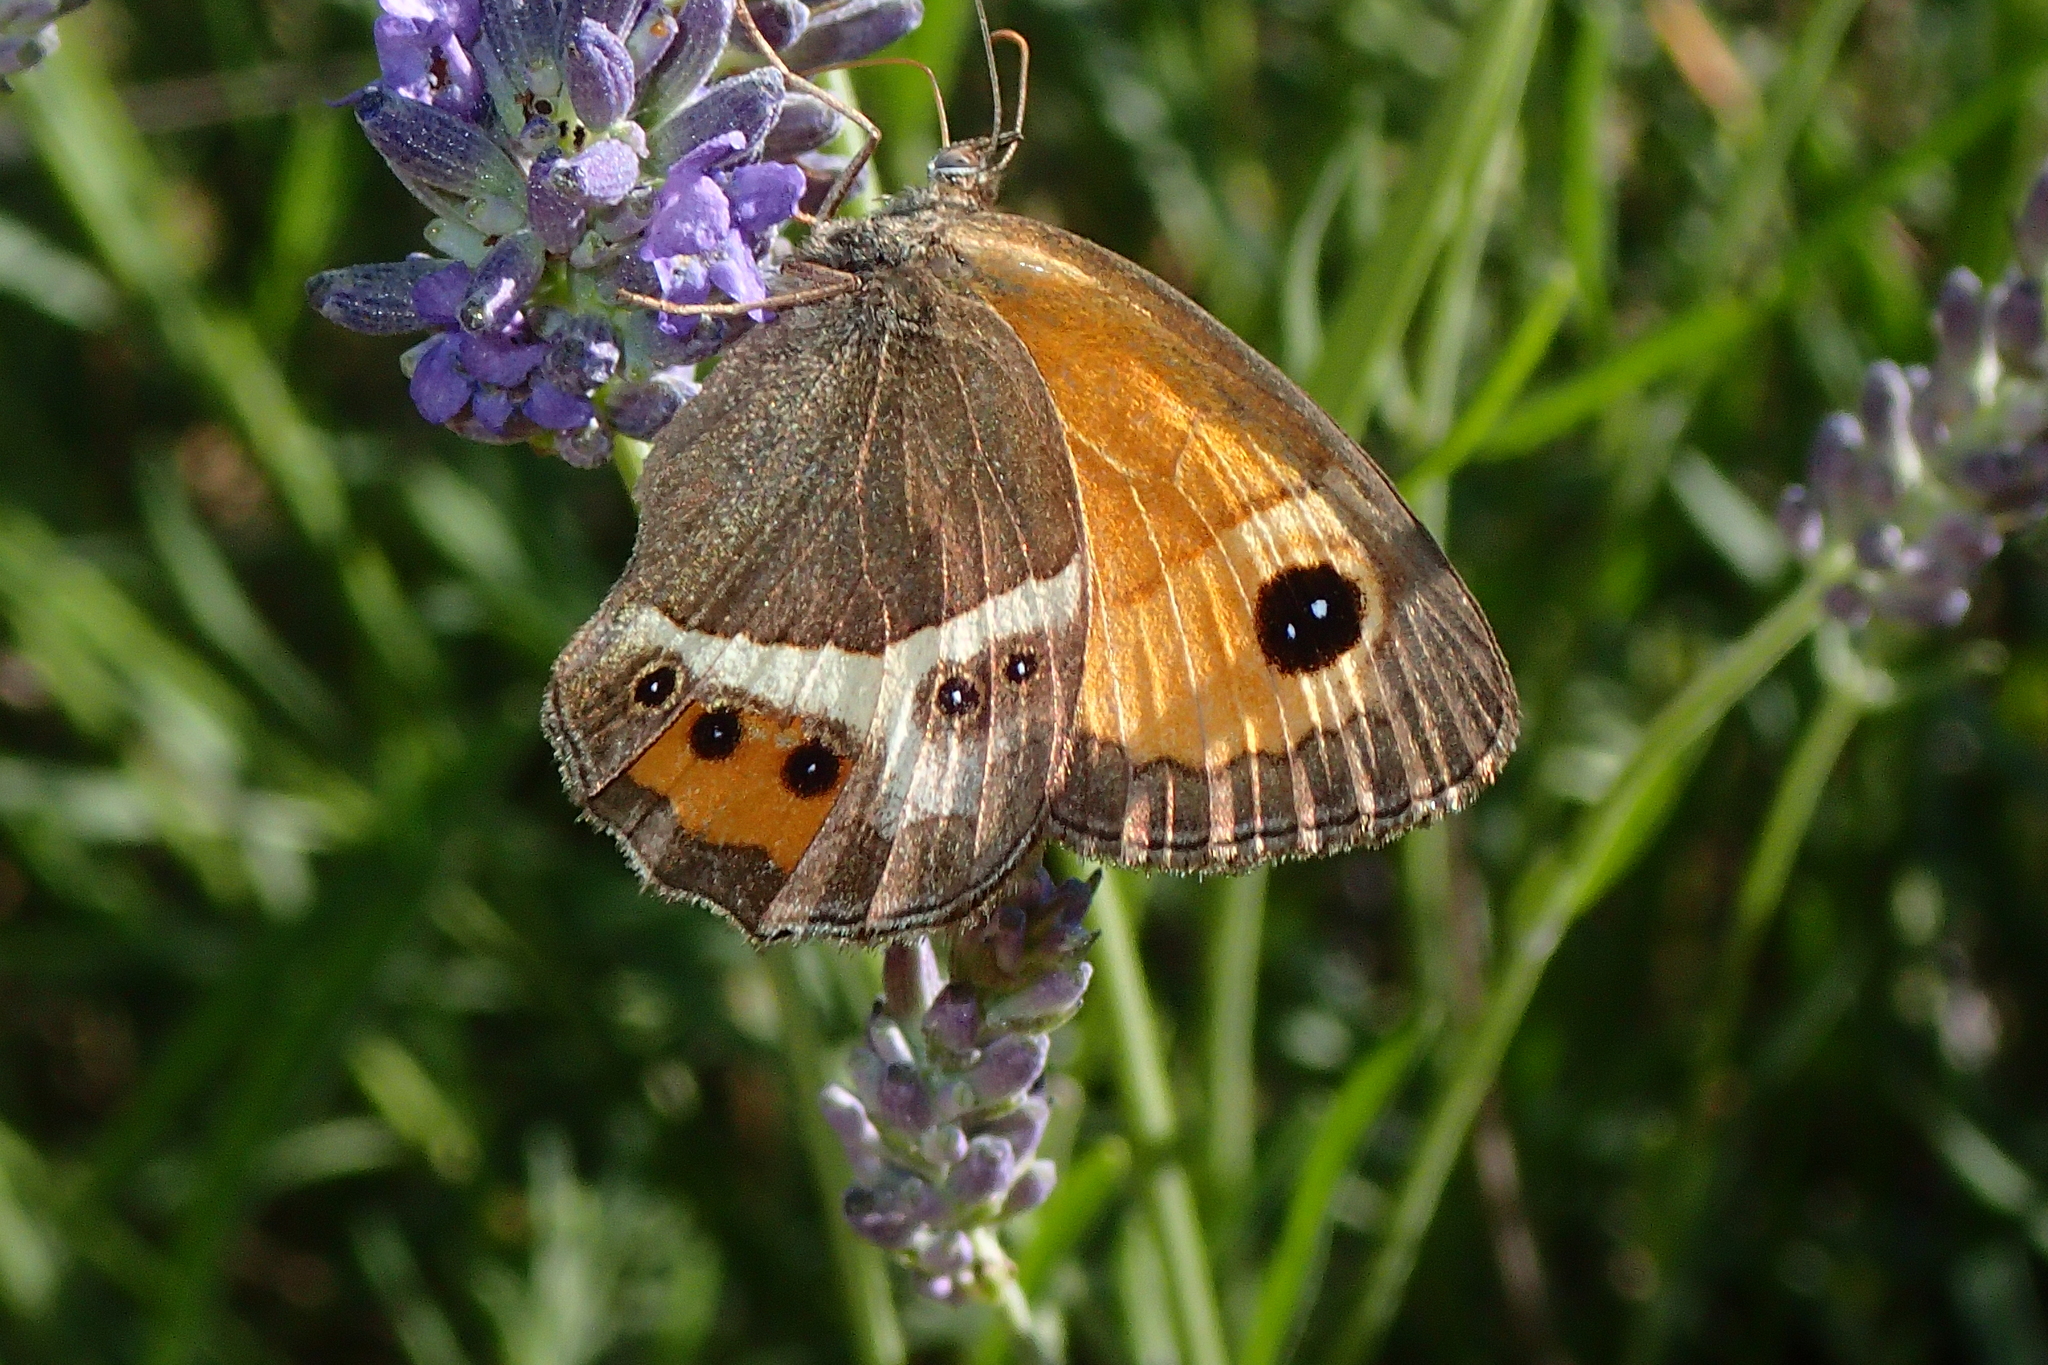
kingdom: Animalia
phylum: Arthropoda
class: Insecta
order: Lepidoptera
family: Nymphalidae
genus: Pyronia
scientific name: Pyronia bathseba
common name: Spanish gatekeeper
